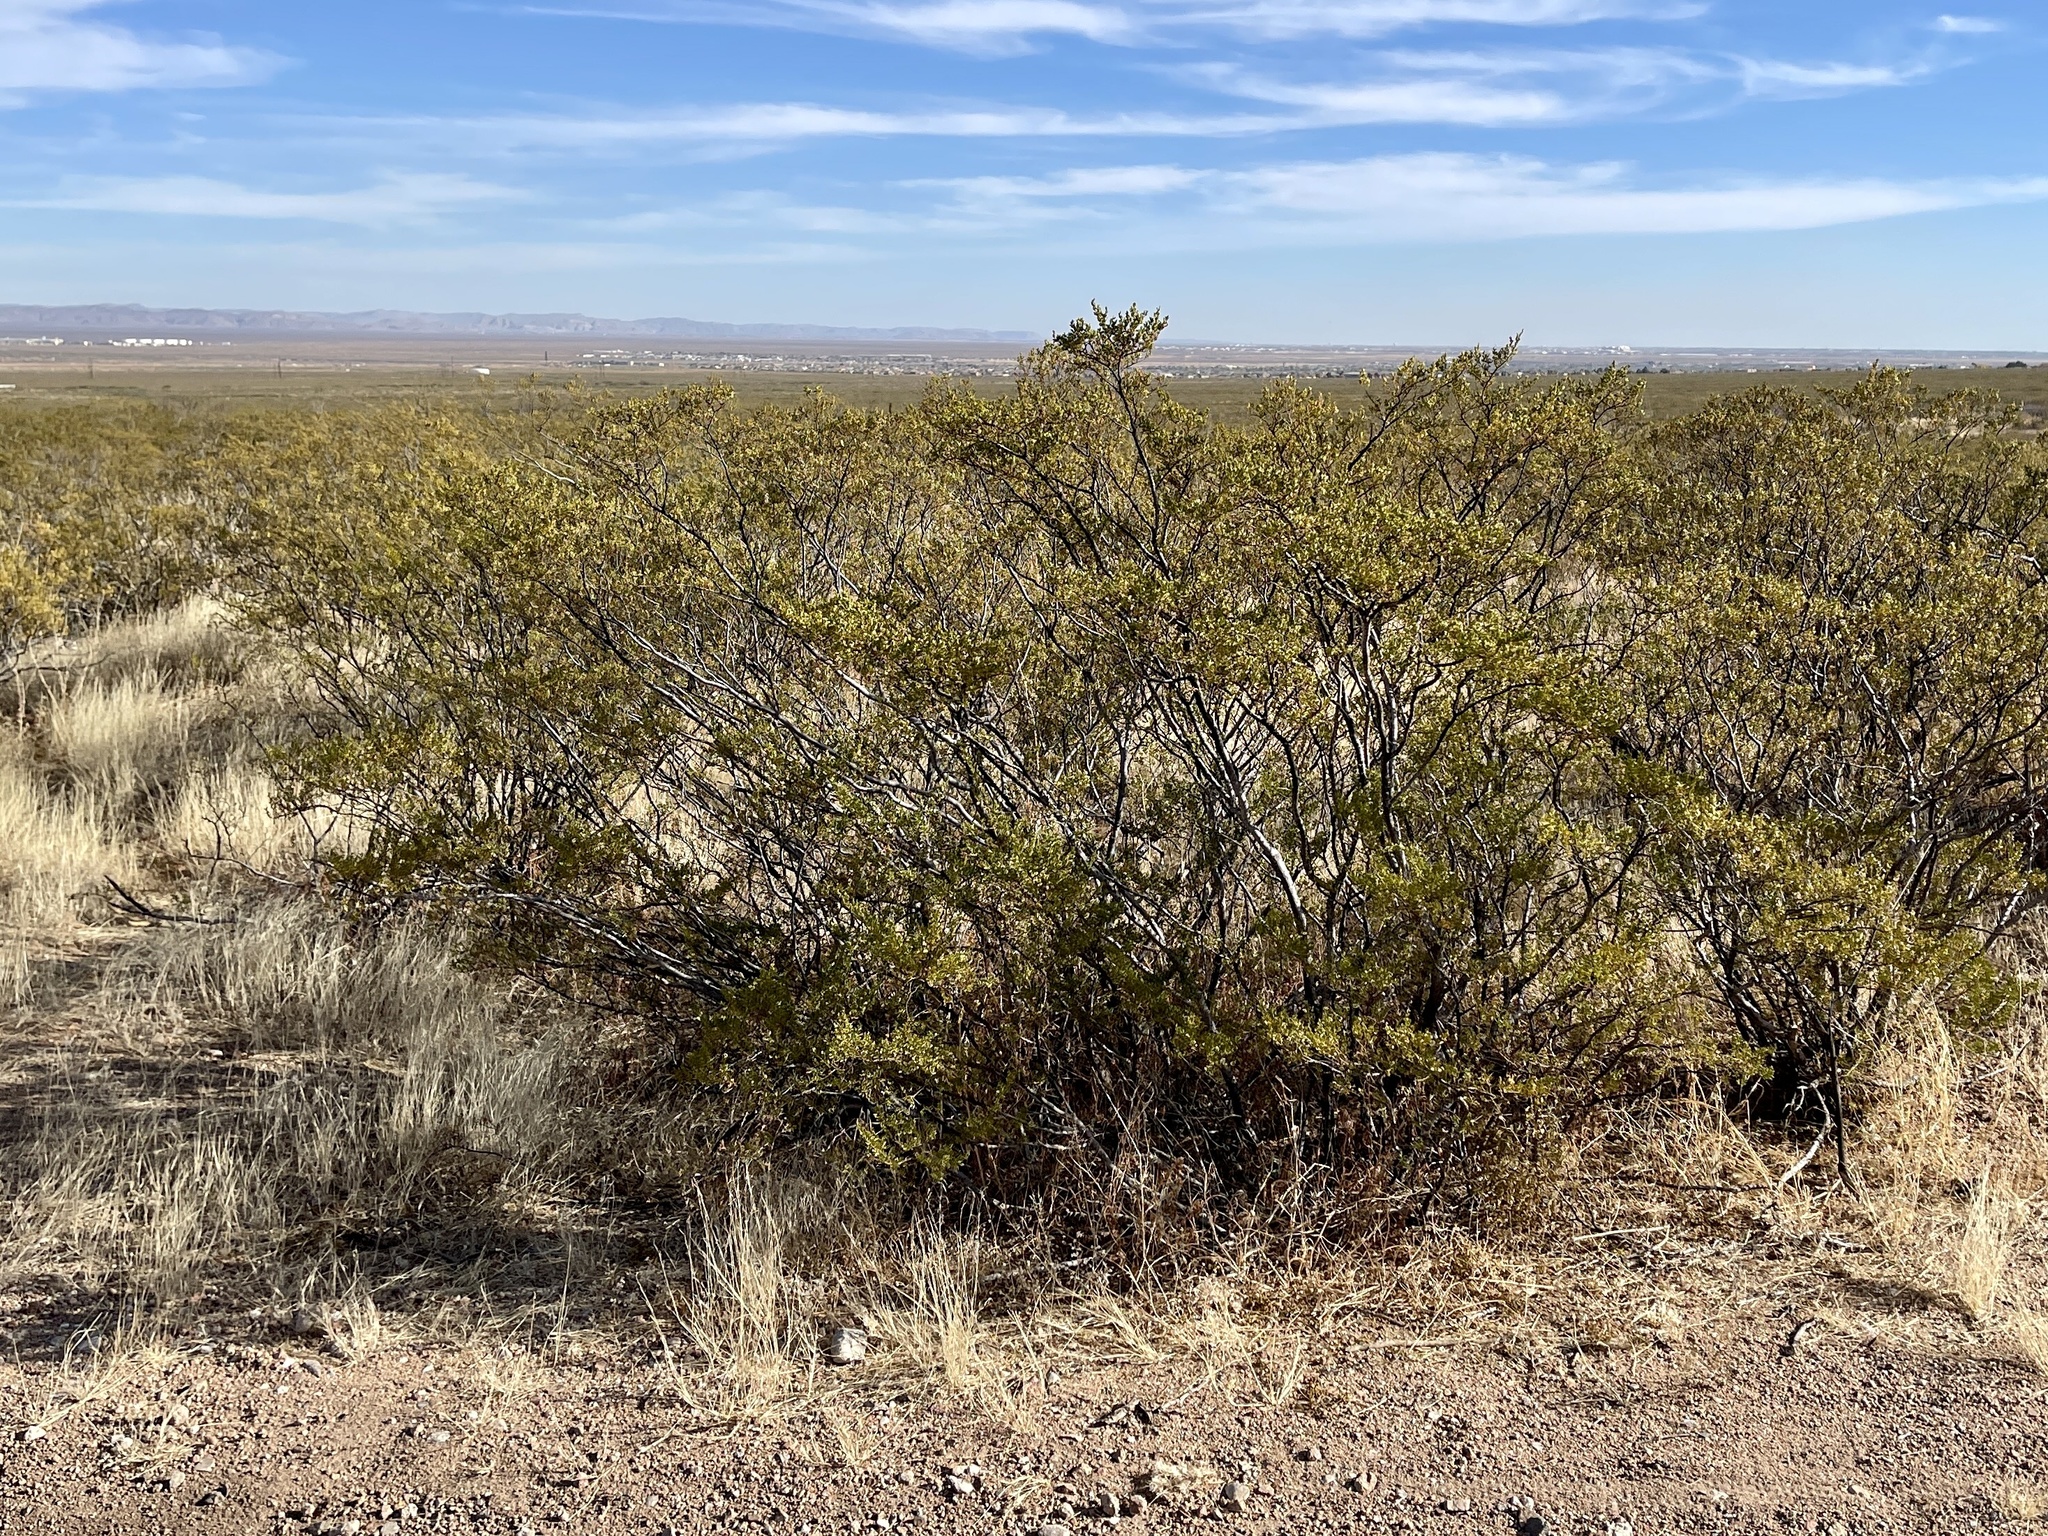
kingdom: Plantae
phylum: Tracheophyta
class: Magnoliopsida
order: Zygophyllales
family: Zygophyllaceae
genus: Larrea
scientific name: Larrea tridentata
